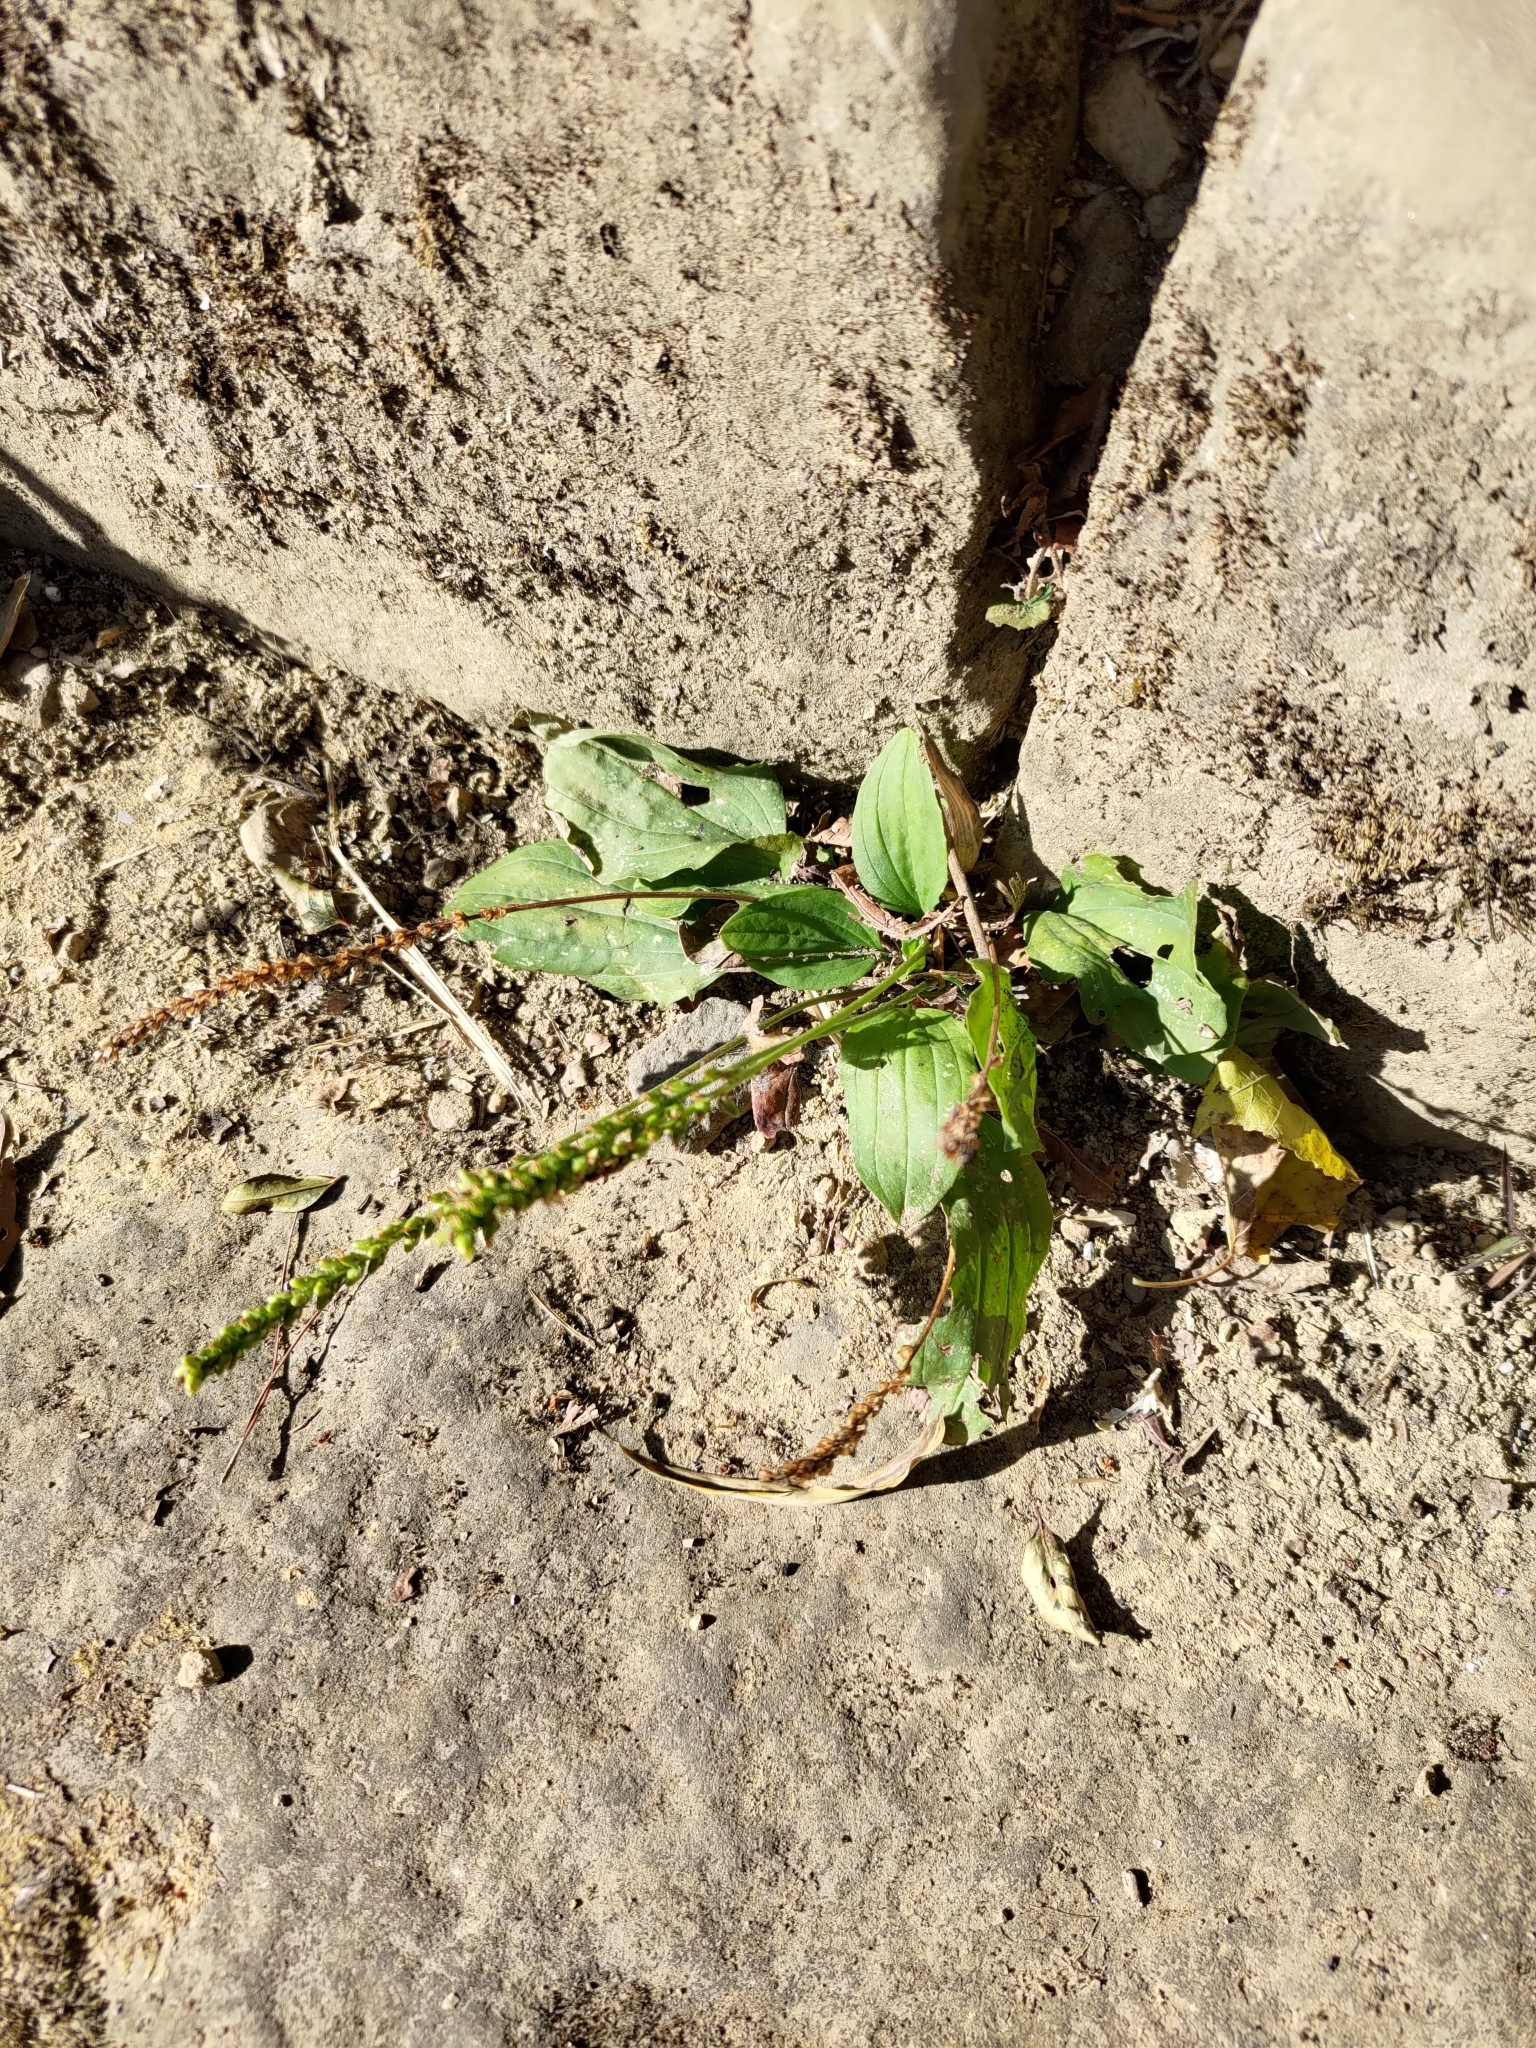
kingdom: Plantae
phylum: Tracheophyta
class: Magnoliopsida
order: Lamiales
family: Plantaginaceae
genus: Plantago
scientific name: Plantago asiatica
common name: Psyllium
